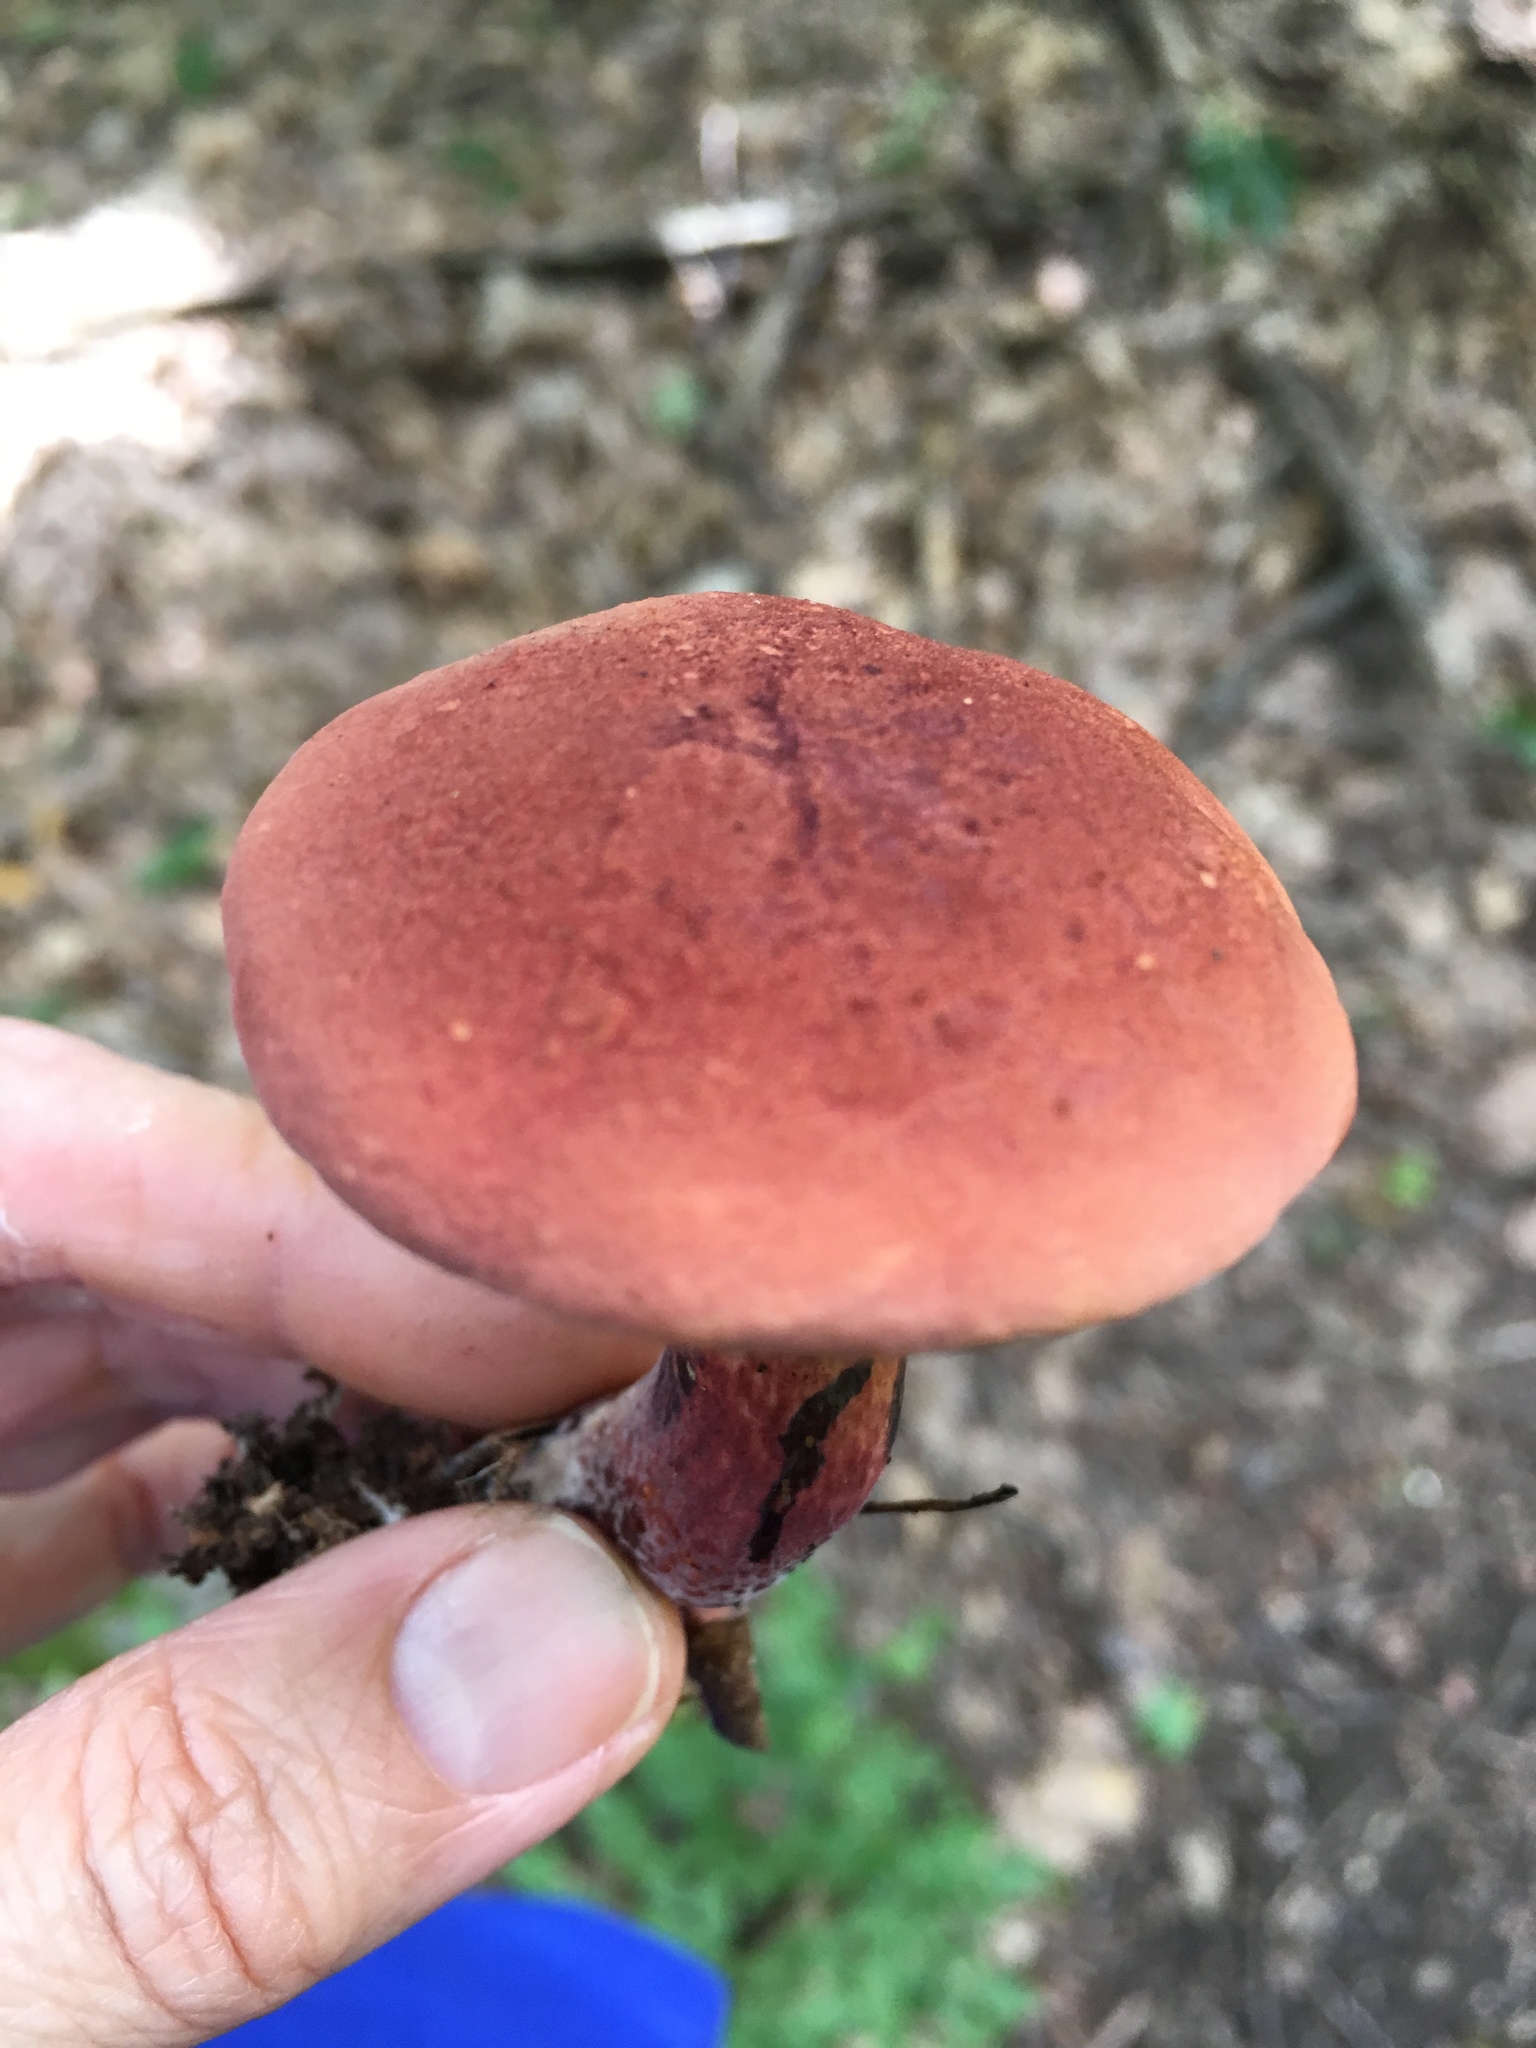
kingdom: Fungi
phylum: Basidiomycota
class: Agaricomycetes
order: Boletales
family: Boletaceae
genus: Baorangia
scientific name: Baorangia bicolor
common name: Two-colored bolete
